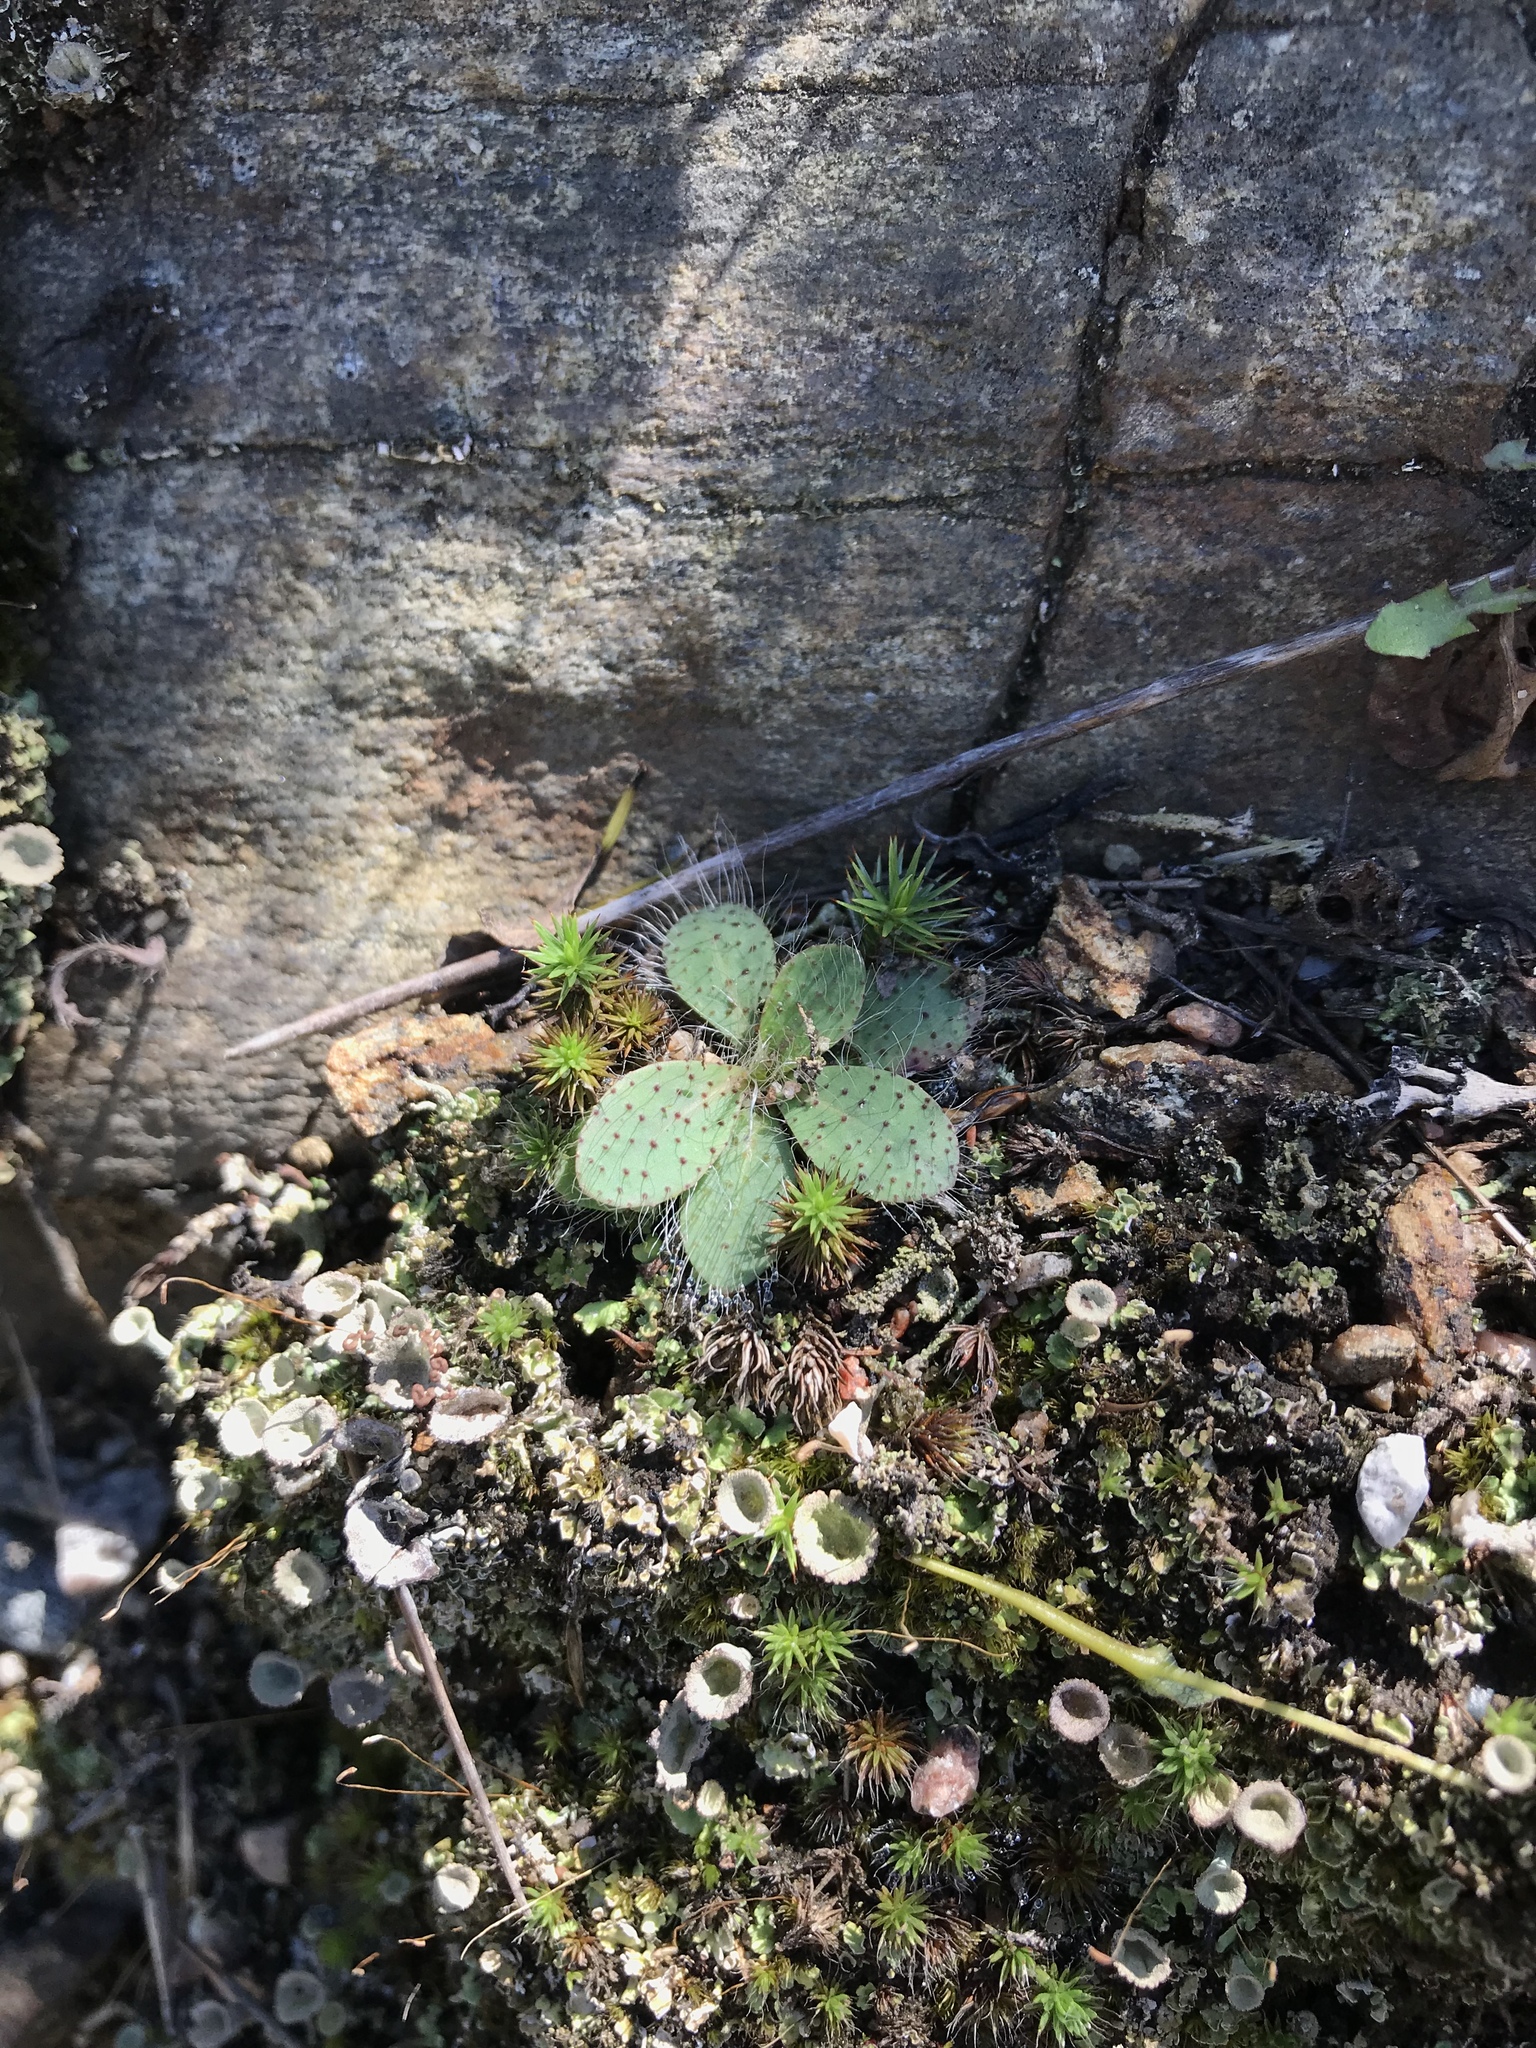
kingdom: Plantae
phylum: Tracheophyta
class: Magnoliopsida
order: Asterales
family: Asteraceae
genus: Pilosella
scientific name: Pilosella caespitosa
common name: Yellow fox-and-cubs
